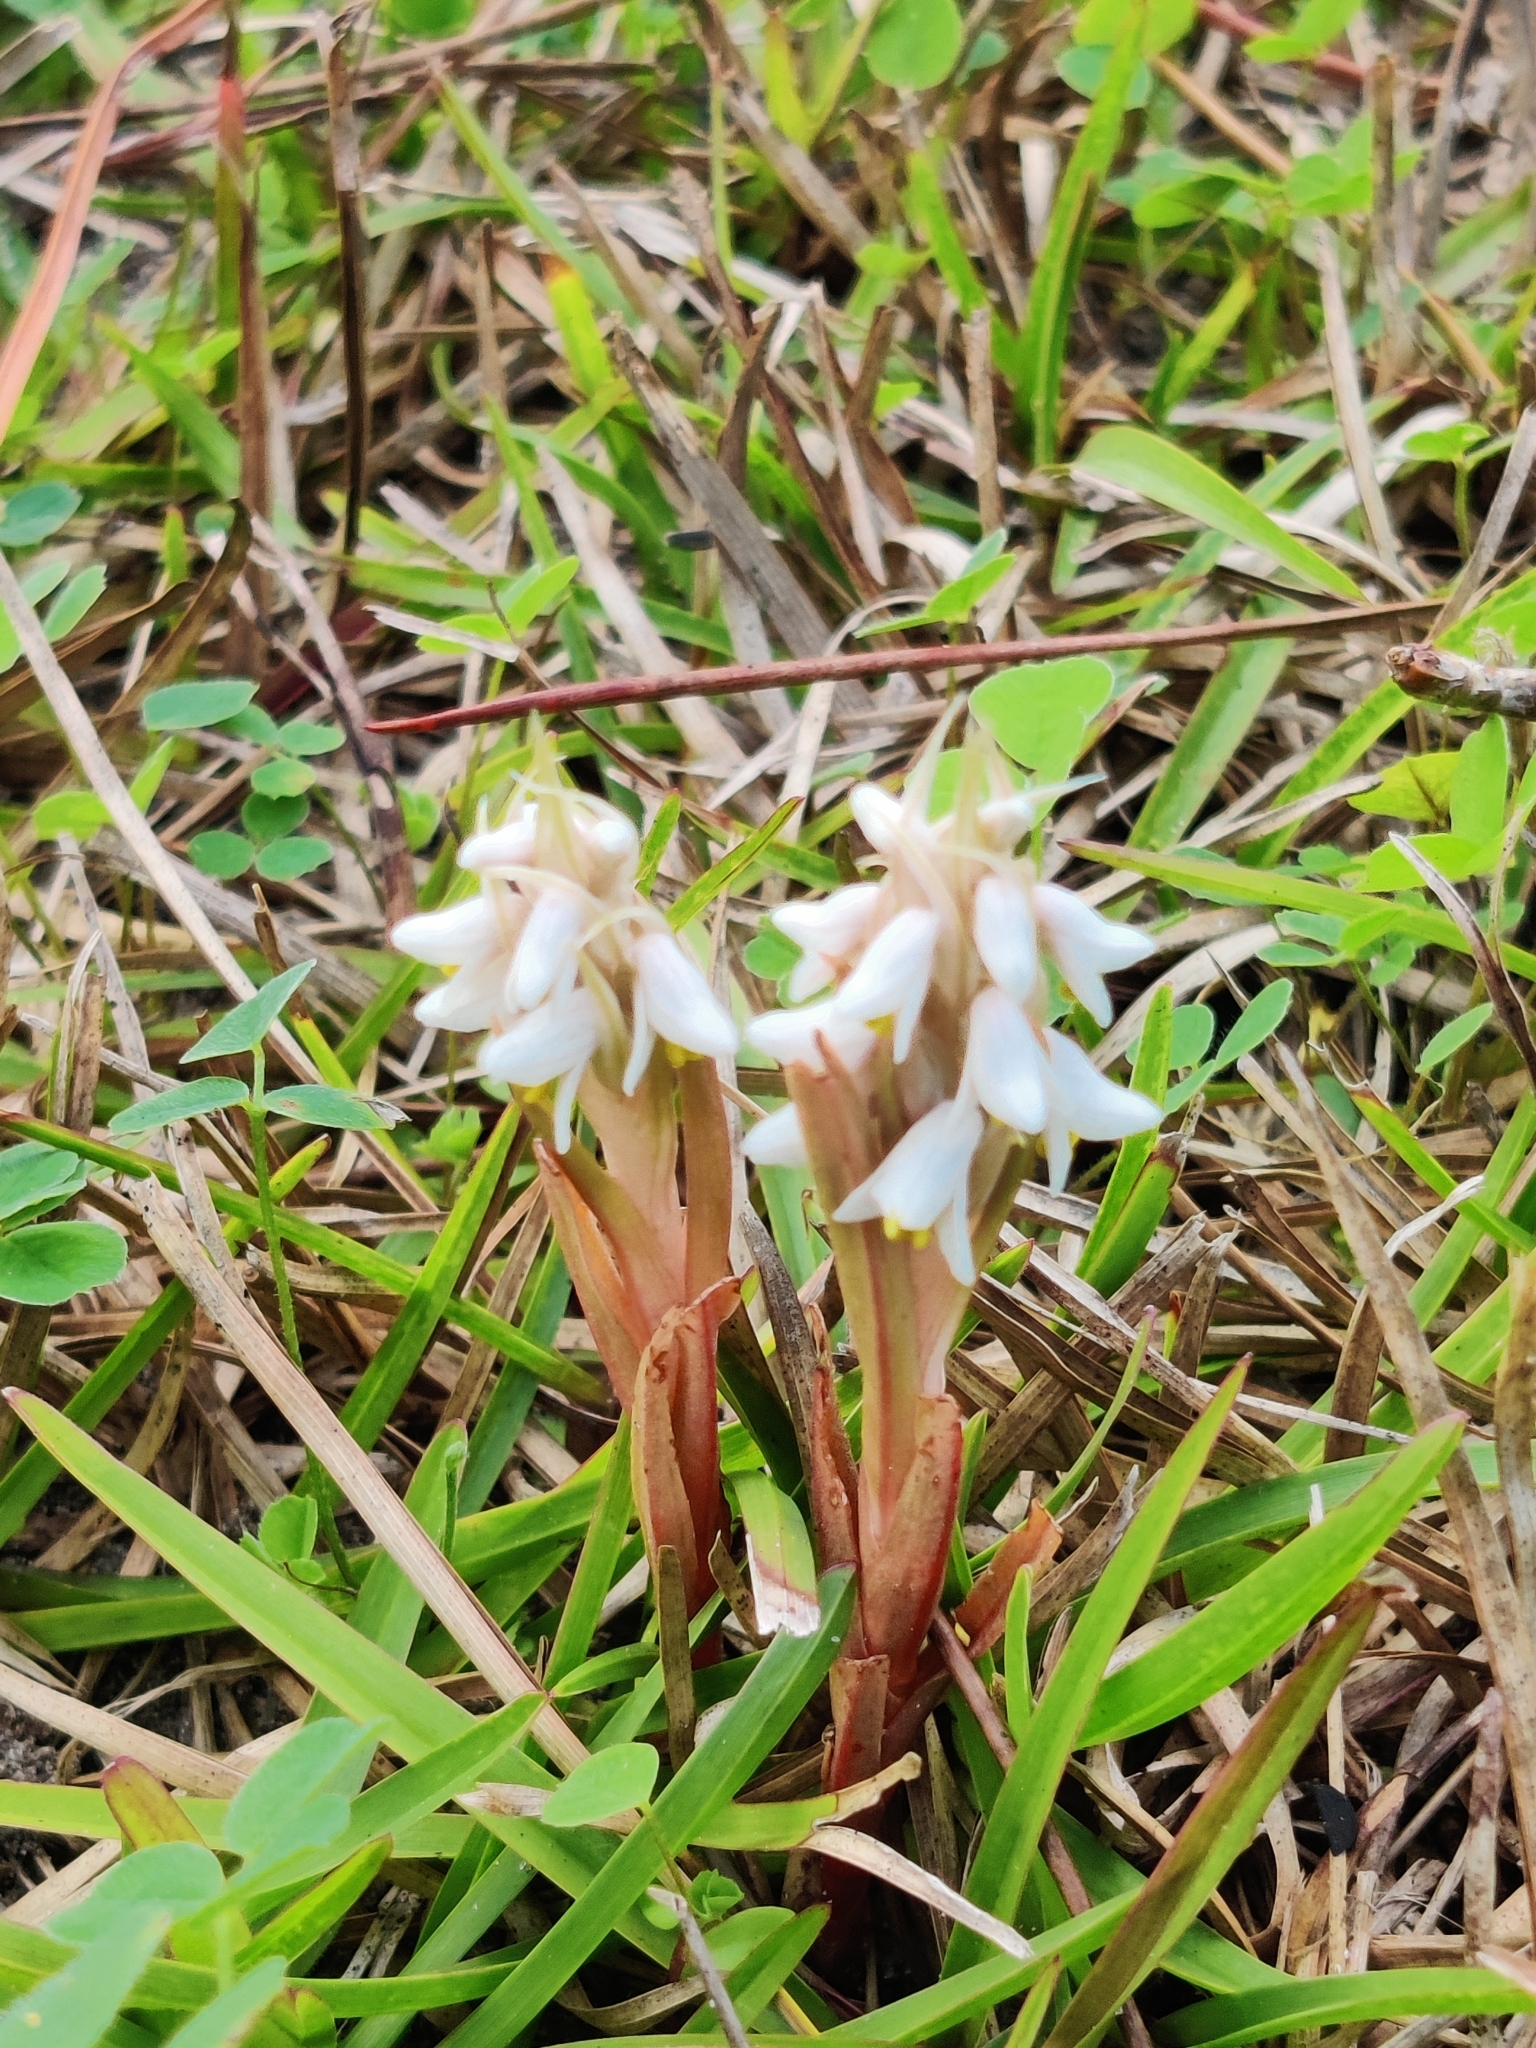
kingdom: Plantae
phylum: Tracheophyta
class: Liliopsida
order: Asparagales
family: Orchidaceae
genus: Zeuxine
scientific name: Zeuxine strateumatica
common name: Soldier's orchid
